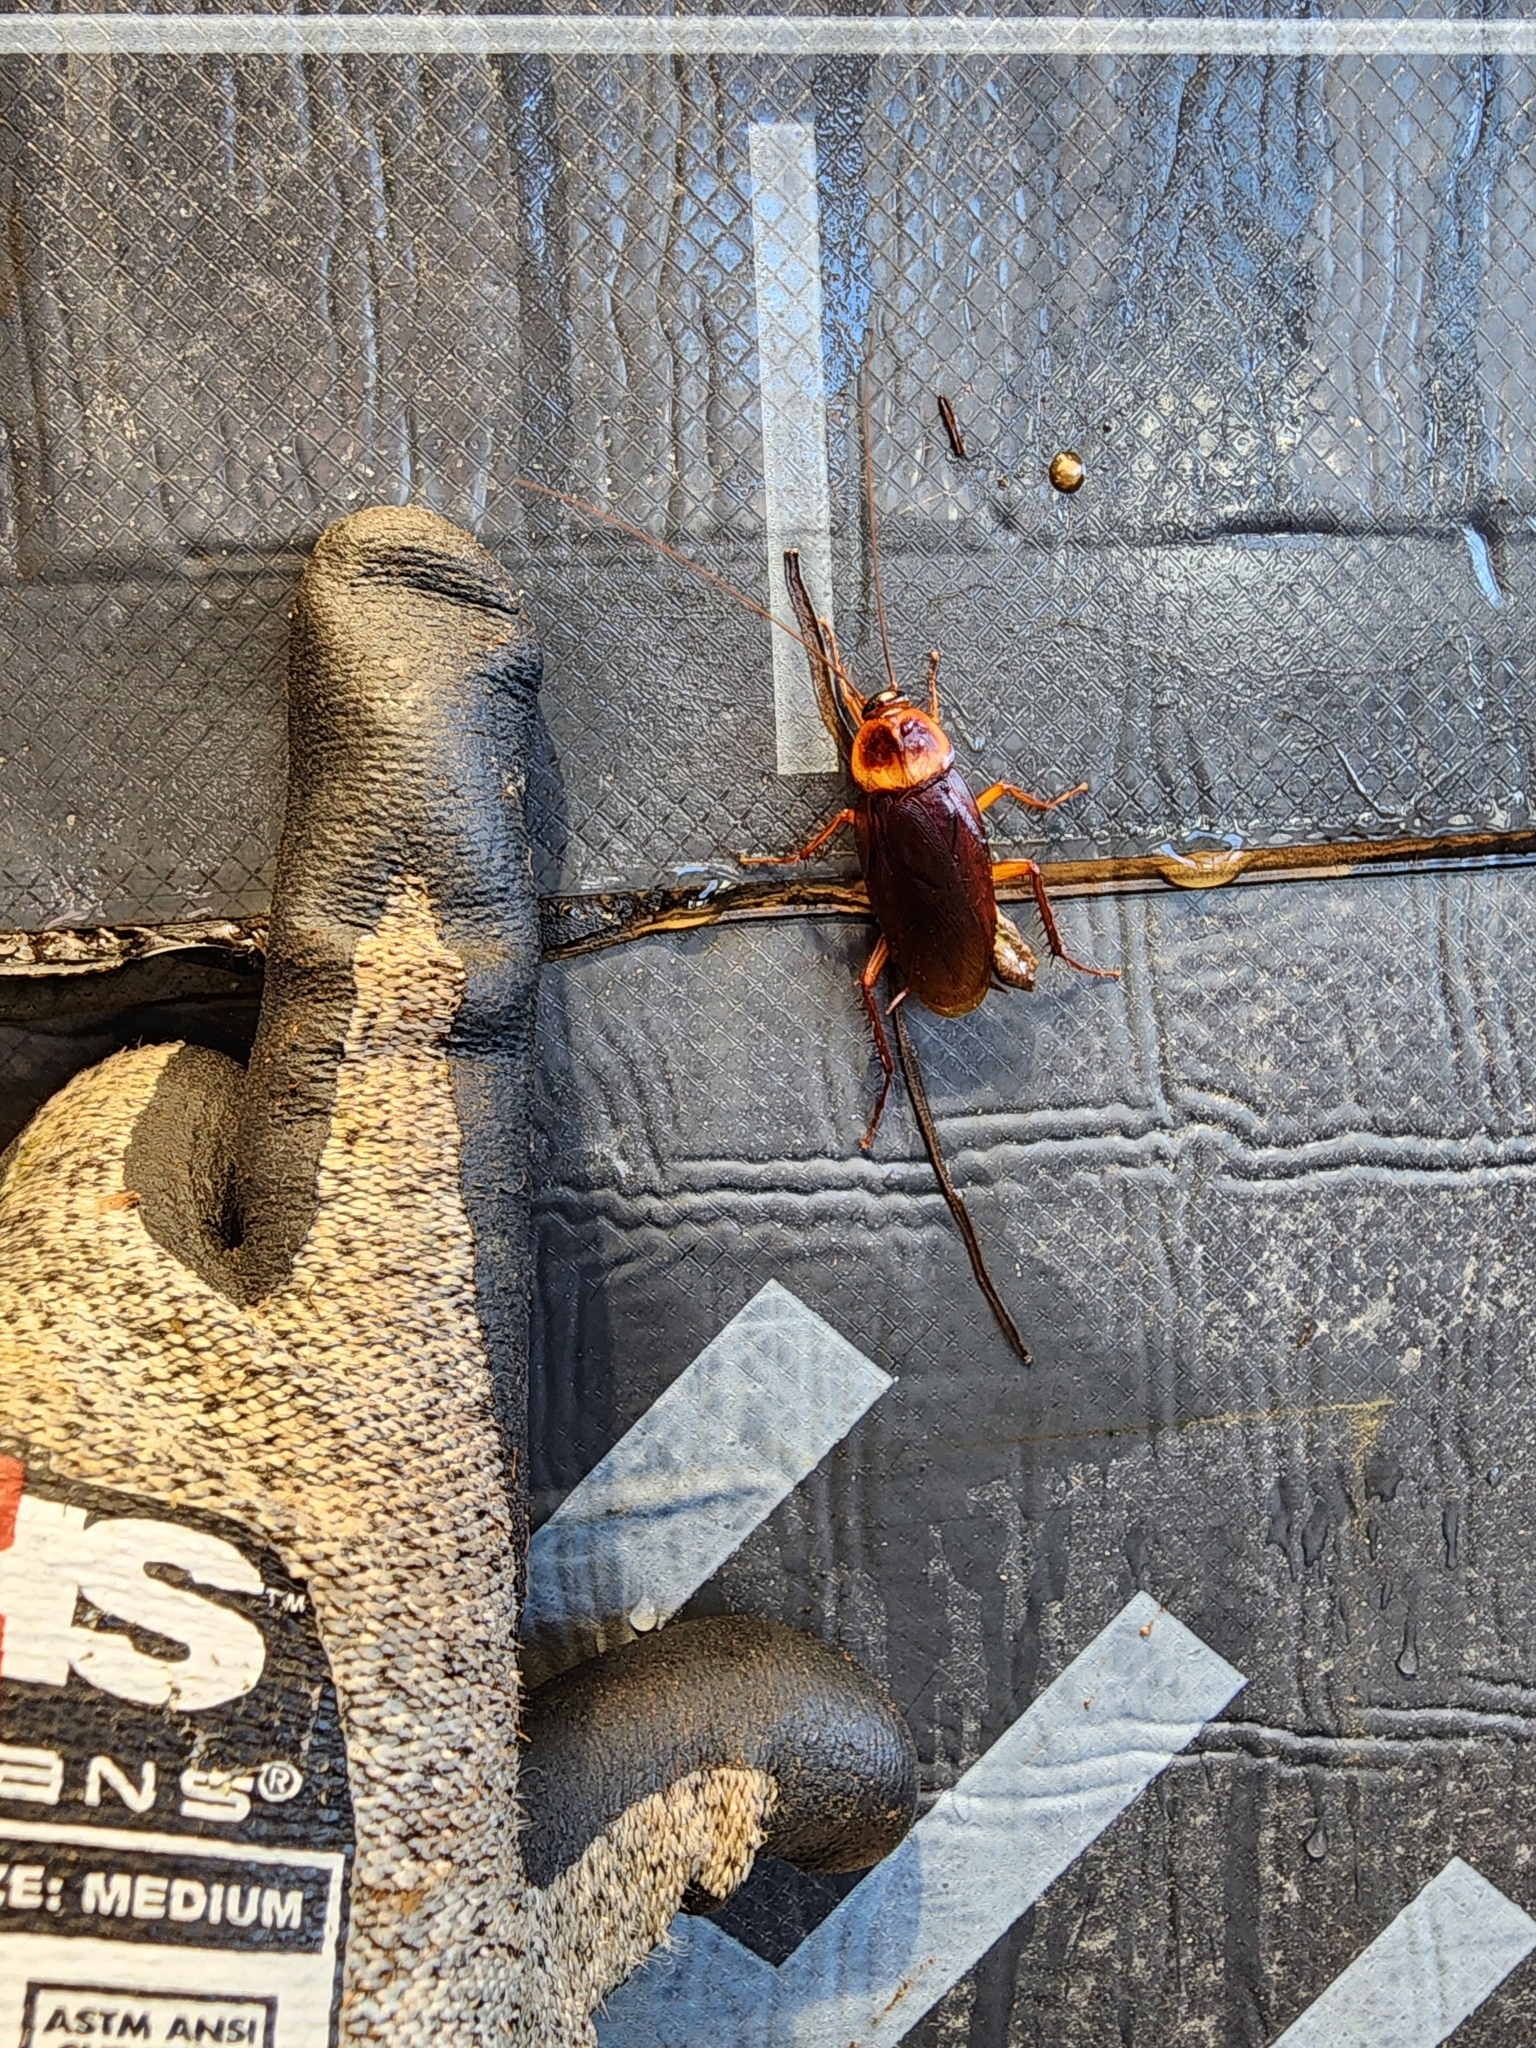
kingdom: Animalia
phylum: Arthropoda
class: Insecta
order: Blattodea
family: Blattidae
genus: Periplaneta
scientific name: Periplaneta americana
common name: American cockroach
